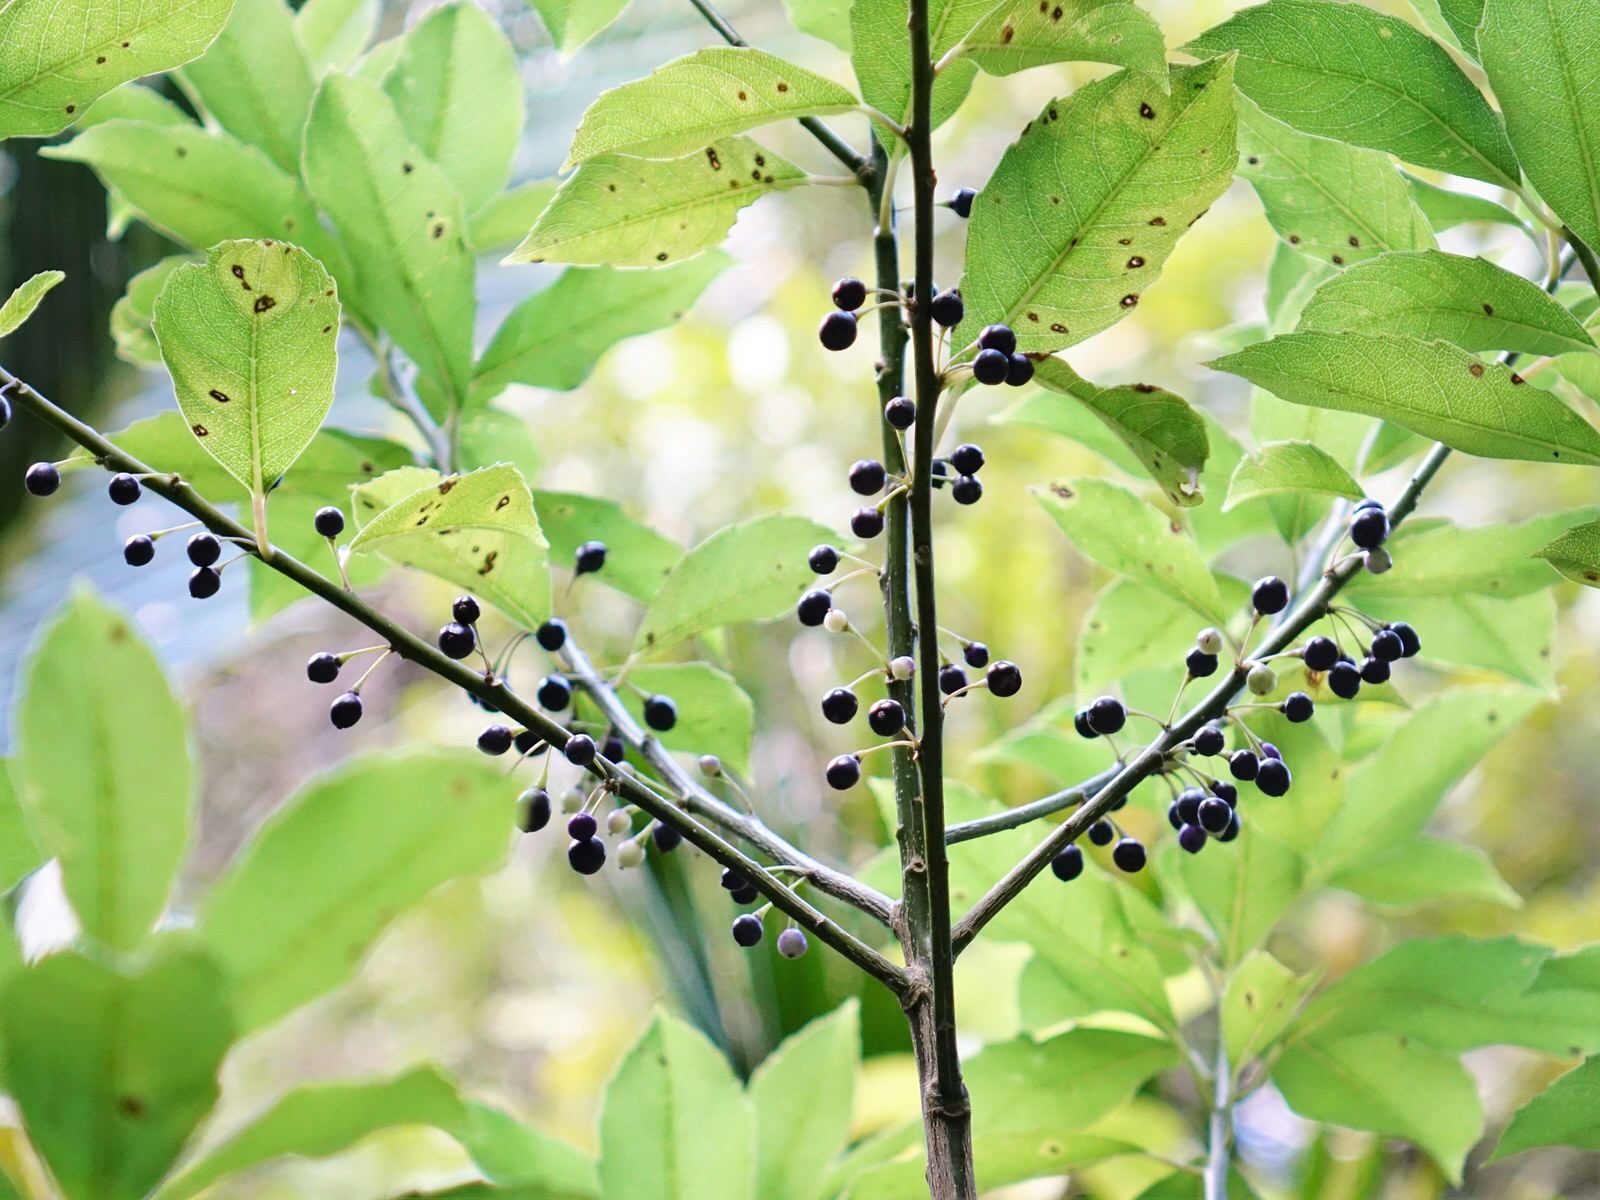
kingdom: Plantae
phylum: Tracheophyta
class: Magnoliopsida
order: Malpighiales
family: Violaceae
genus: Melicytus
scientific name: Melicytus macrophyllus
